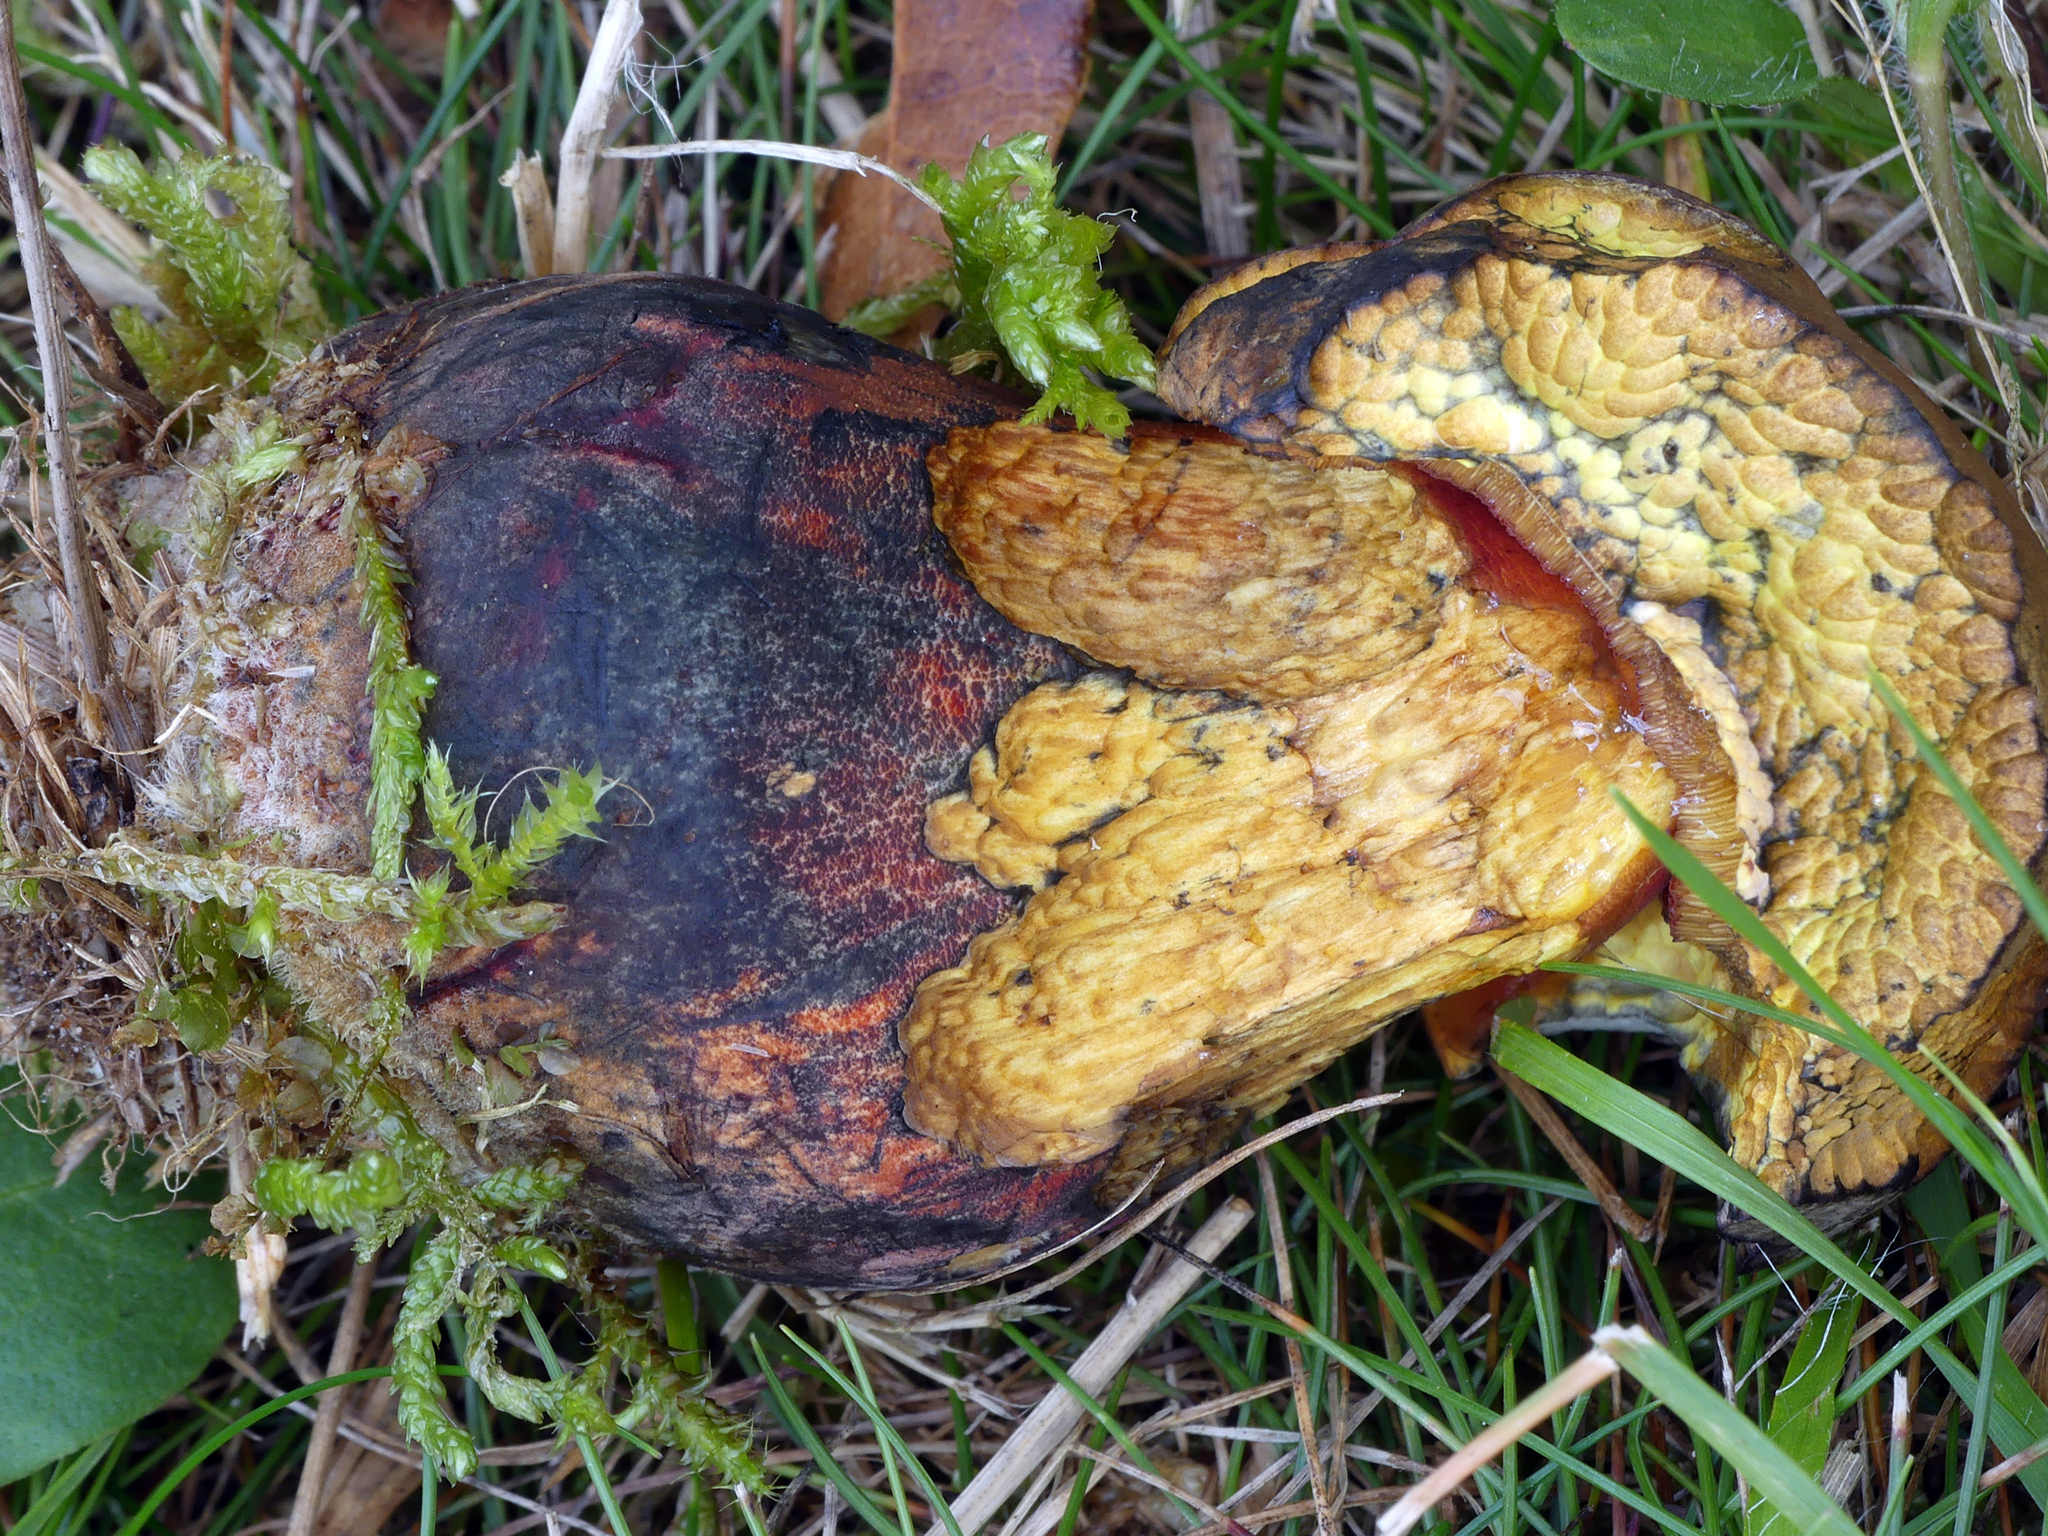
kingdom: Fungi
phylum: Basidiomycota
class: Agaricomycetes
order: Boletales
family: Boletaceae
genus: Neoboletus
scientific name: Neoboletus luridiformis
